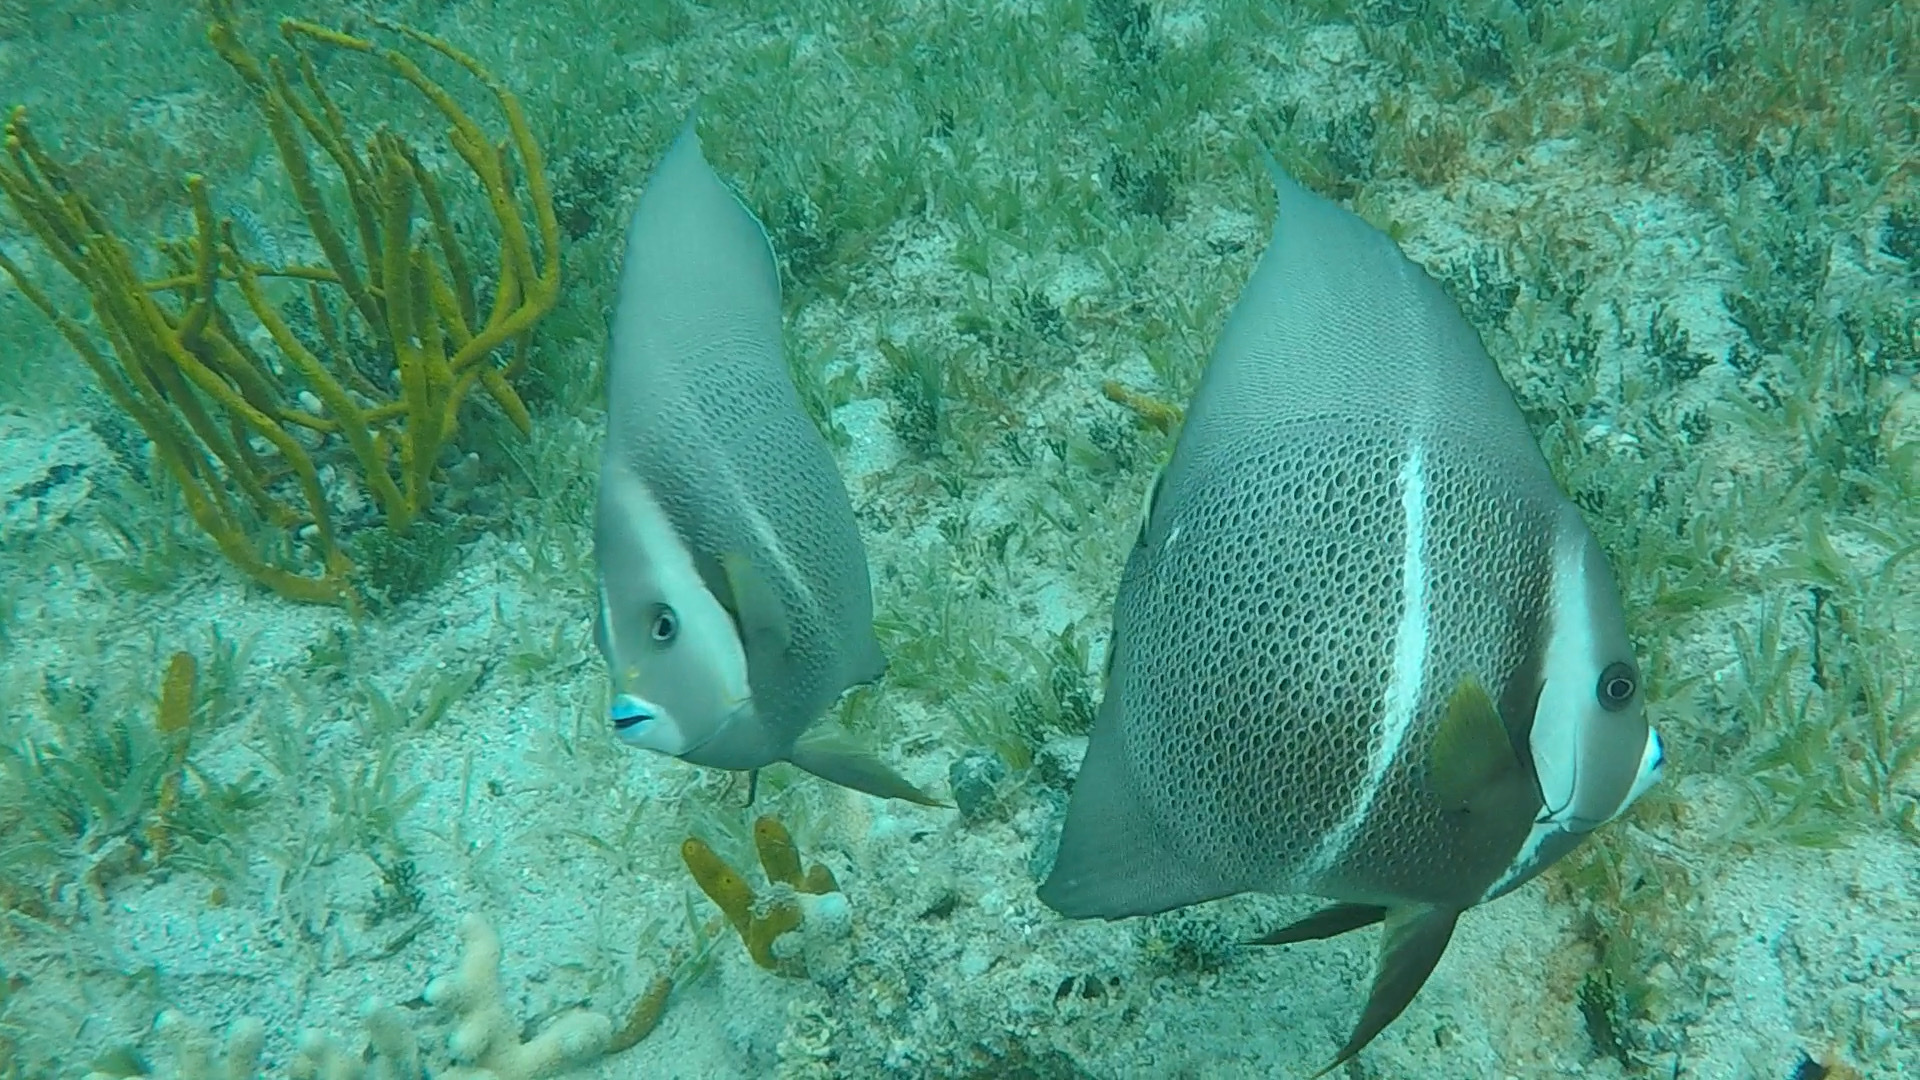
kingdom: Animalia
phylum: Chordata
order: Perciformes
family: Pomacanthidae
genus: Pomacanthus
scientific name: Pomacanthus arcuatus
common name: Gray angelfish
